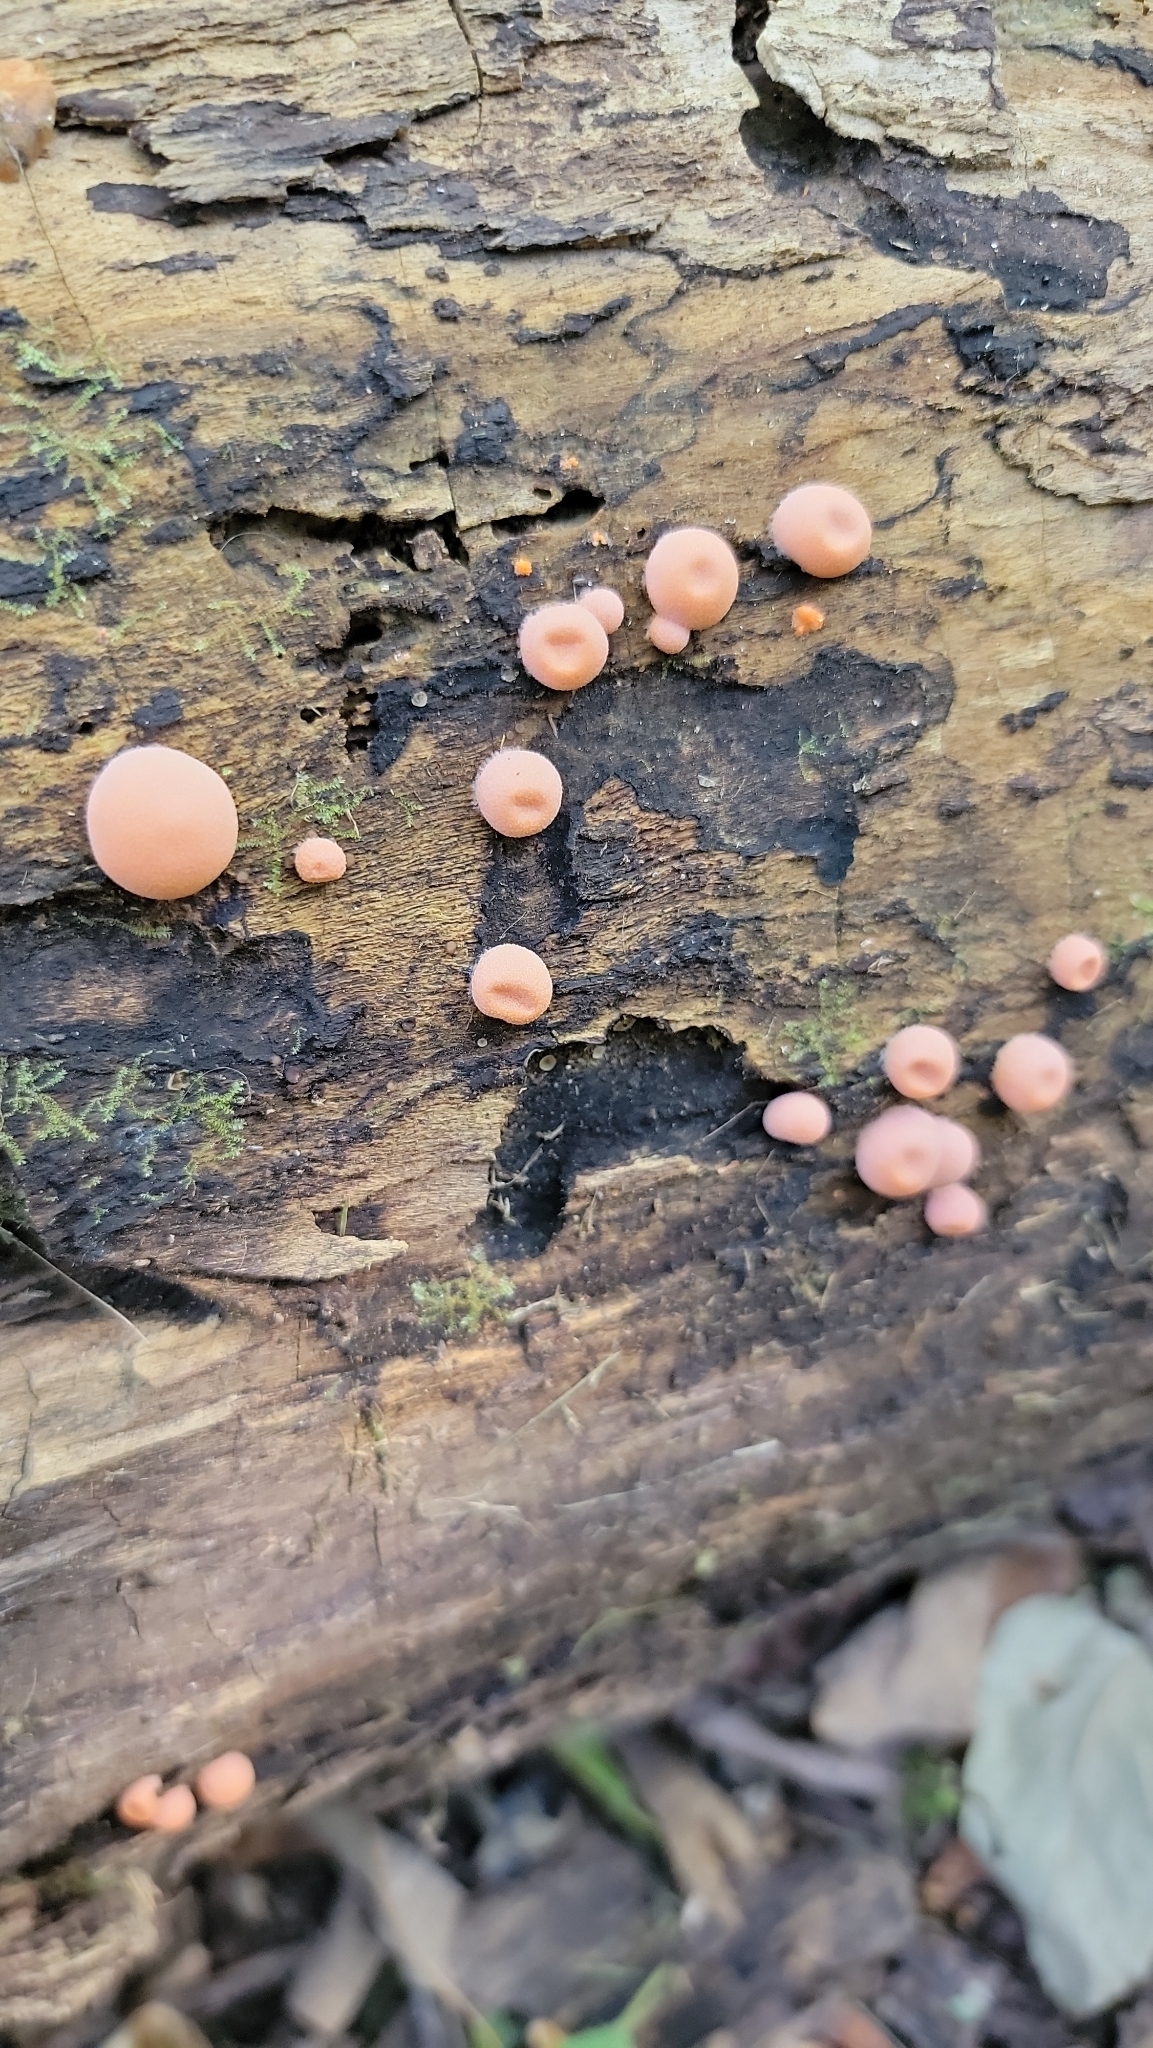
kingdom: Protozoa
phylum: Mycetozoa
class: Myxomycetes
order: Cribrariales
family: Tubiferaceae
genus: Lycogala
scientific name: Lycogala epidendrum
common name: Wolf's milk
